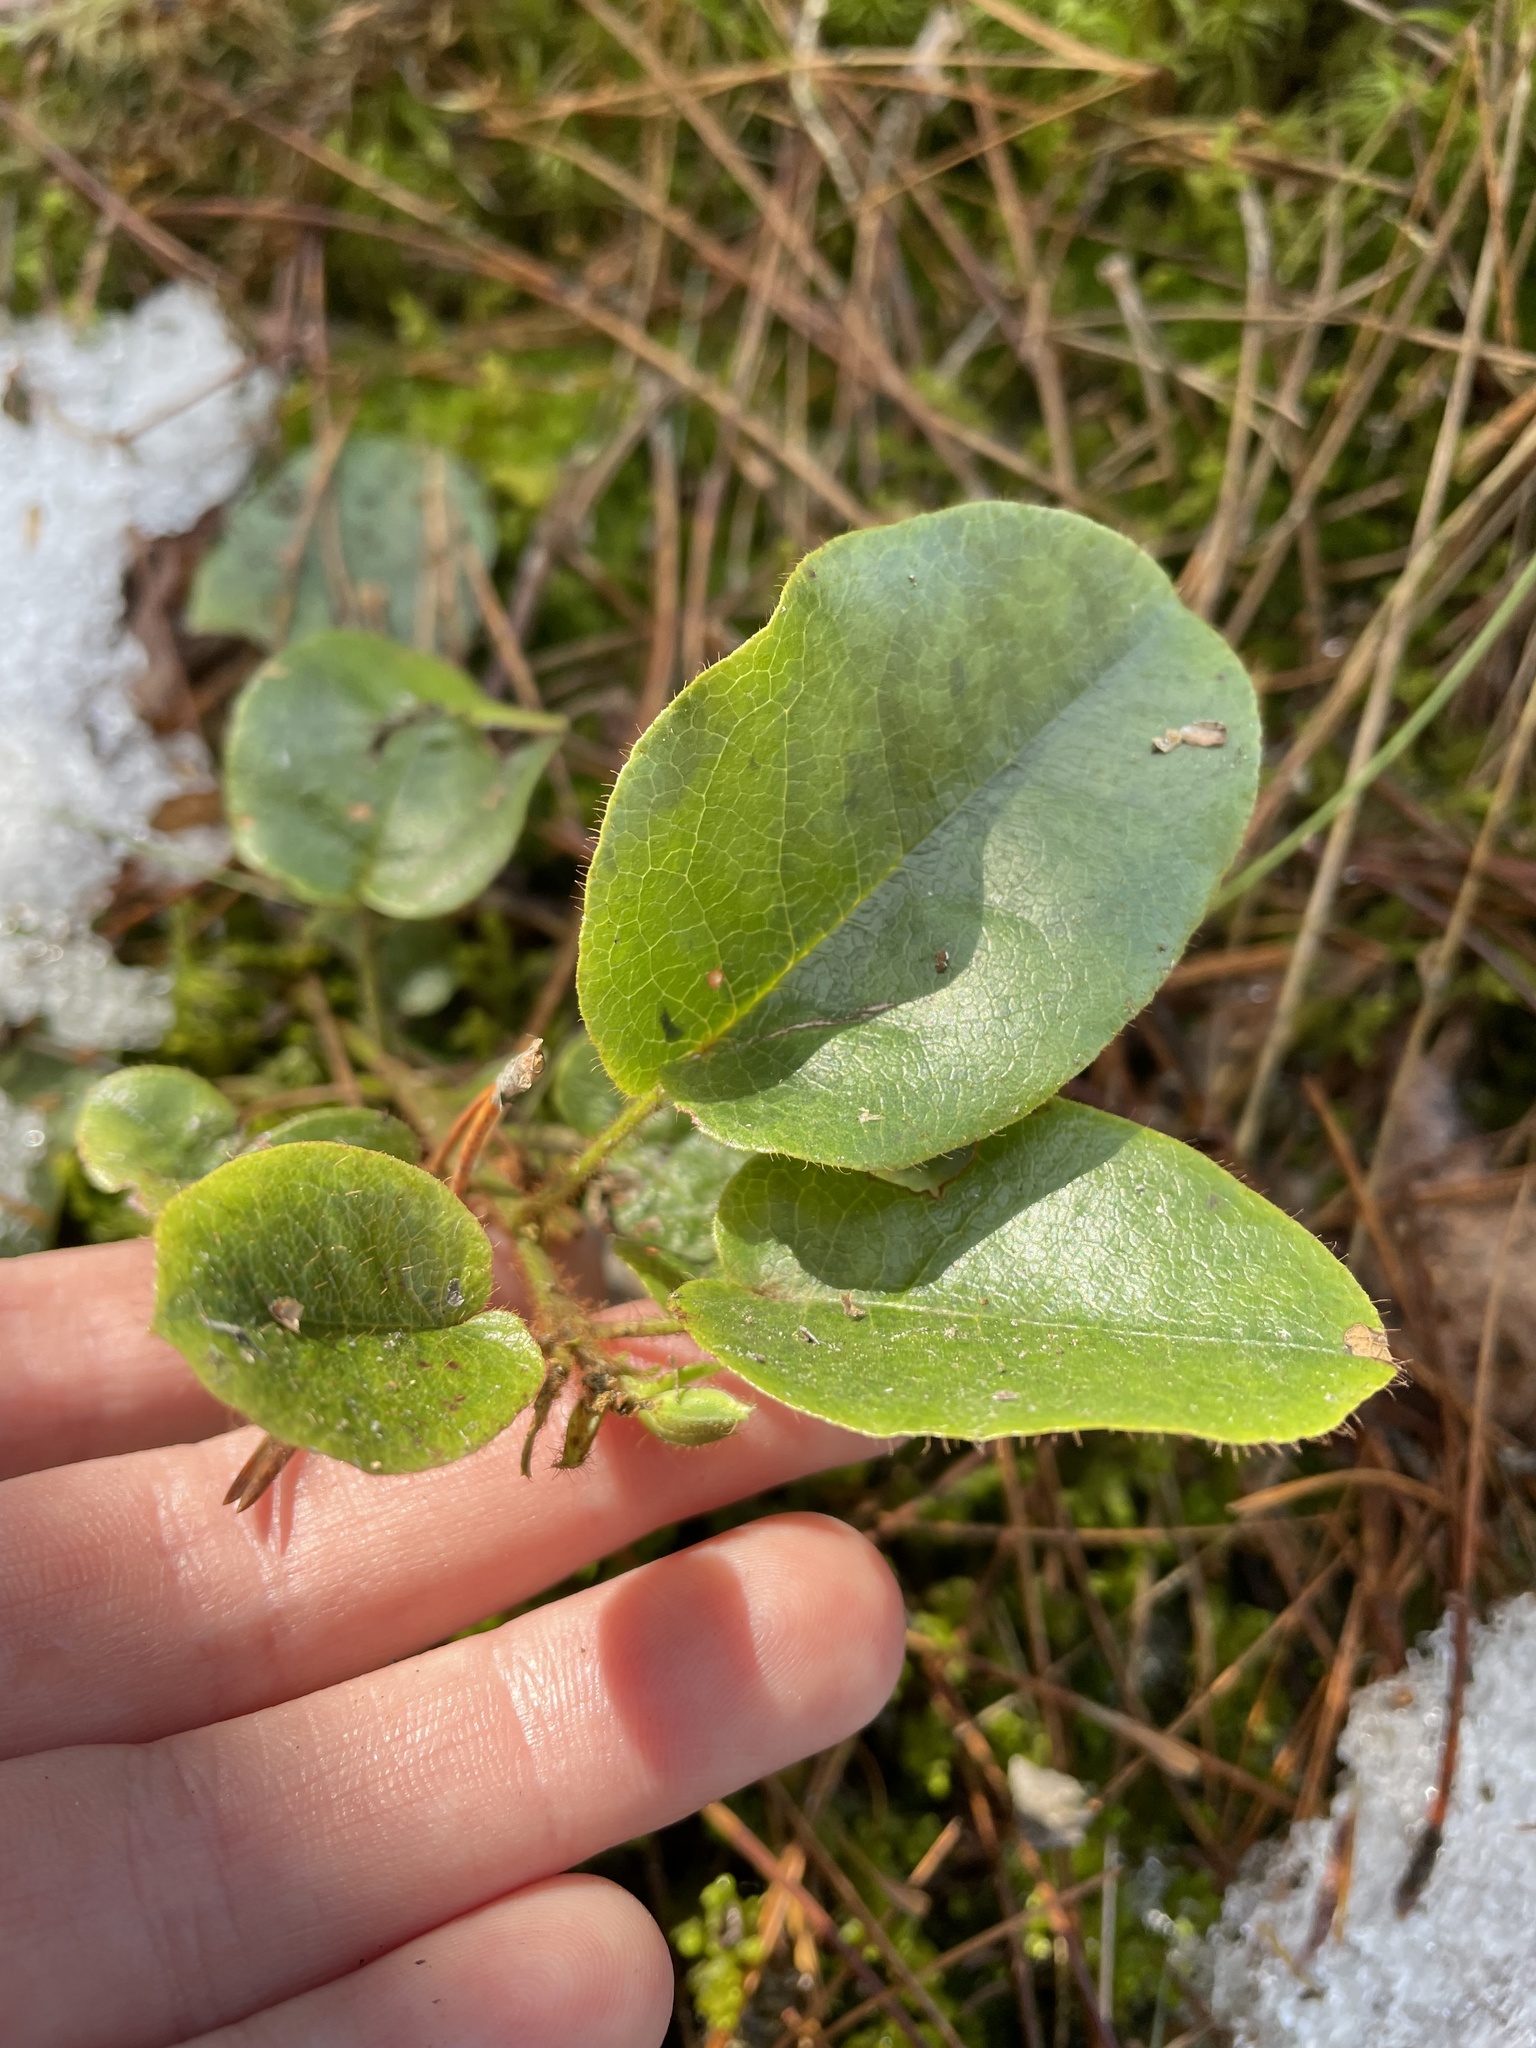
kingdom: Plantae
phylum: Tracheophyta
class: Magnoliopsida
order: Ericales
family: Ericaceae
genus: Epigaea
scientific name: Epigaea repens
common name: Gravelroot
